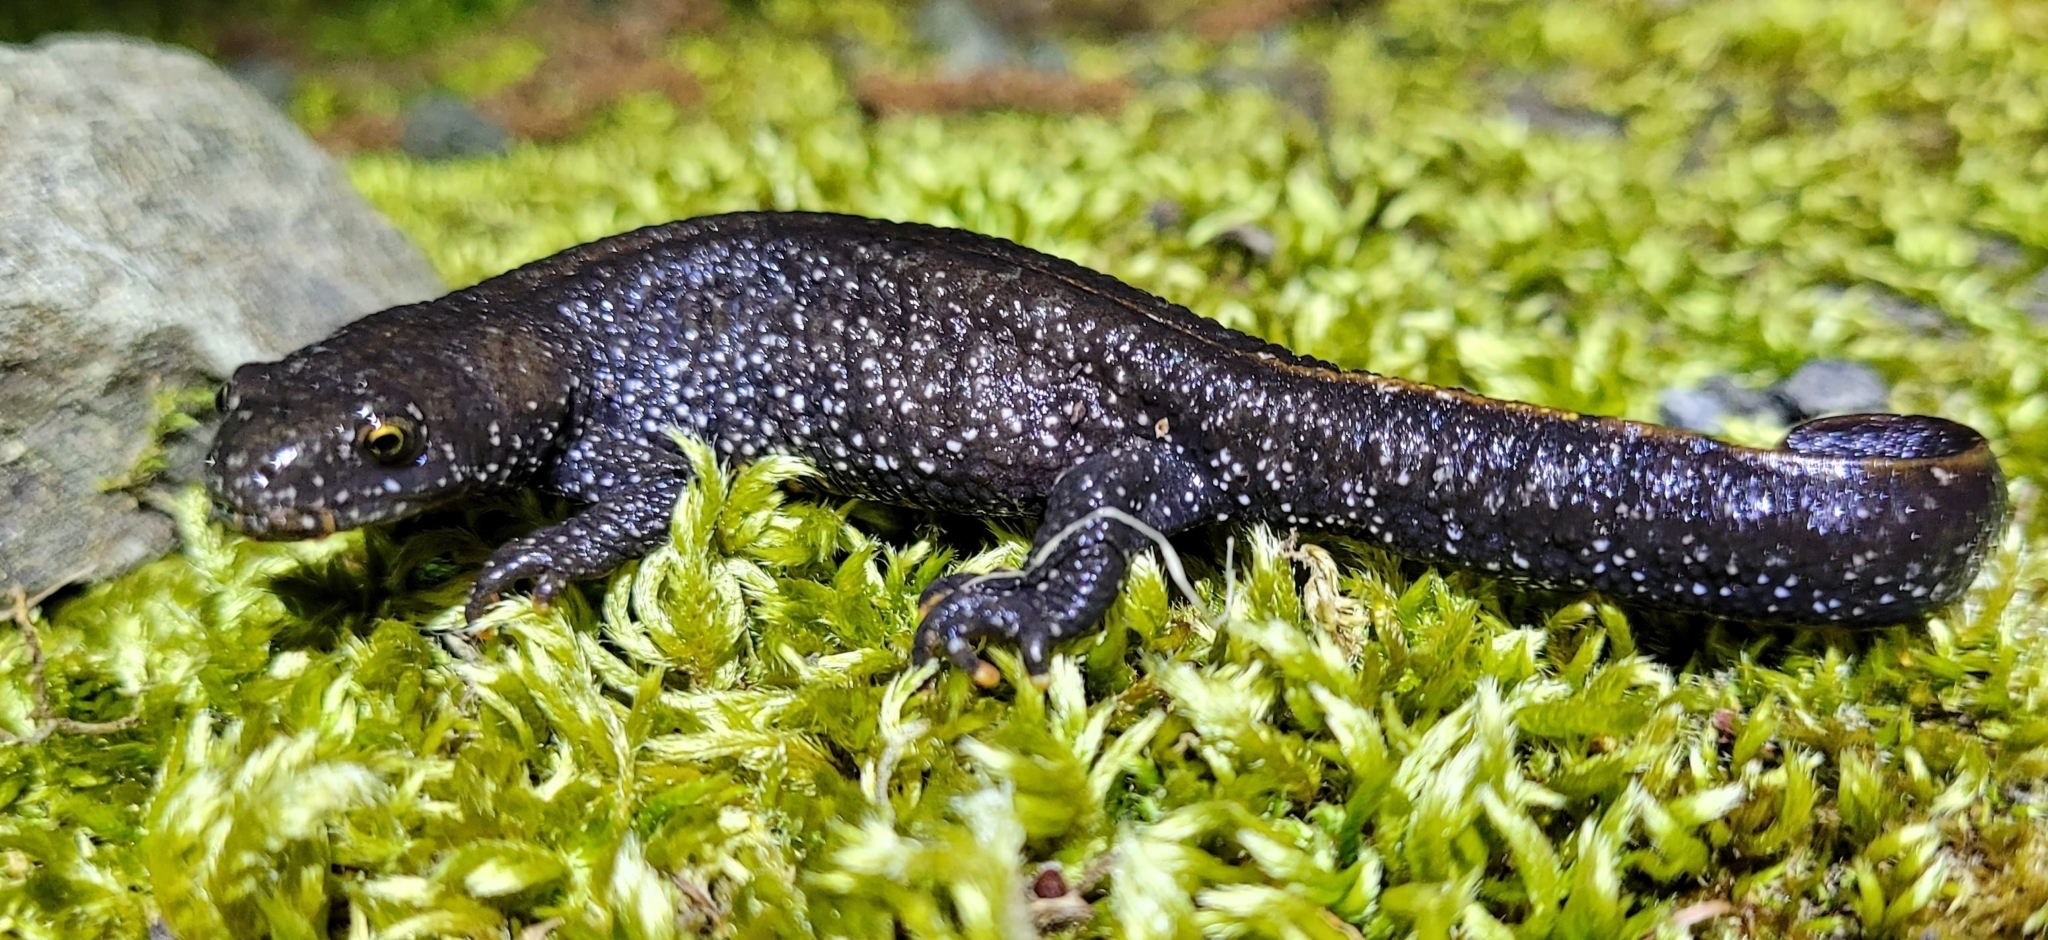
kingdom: Animalia
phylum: Chordata
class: Amphibia
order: Caudata
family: Salamandridae
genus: Triturus
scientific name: Triturus cristatus
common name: Crested newt
